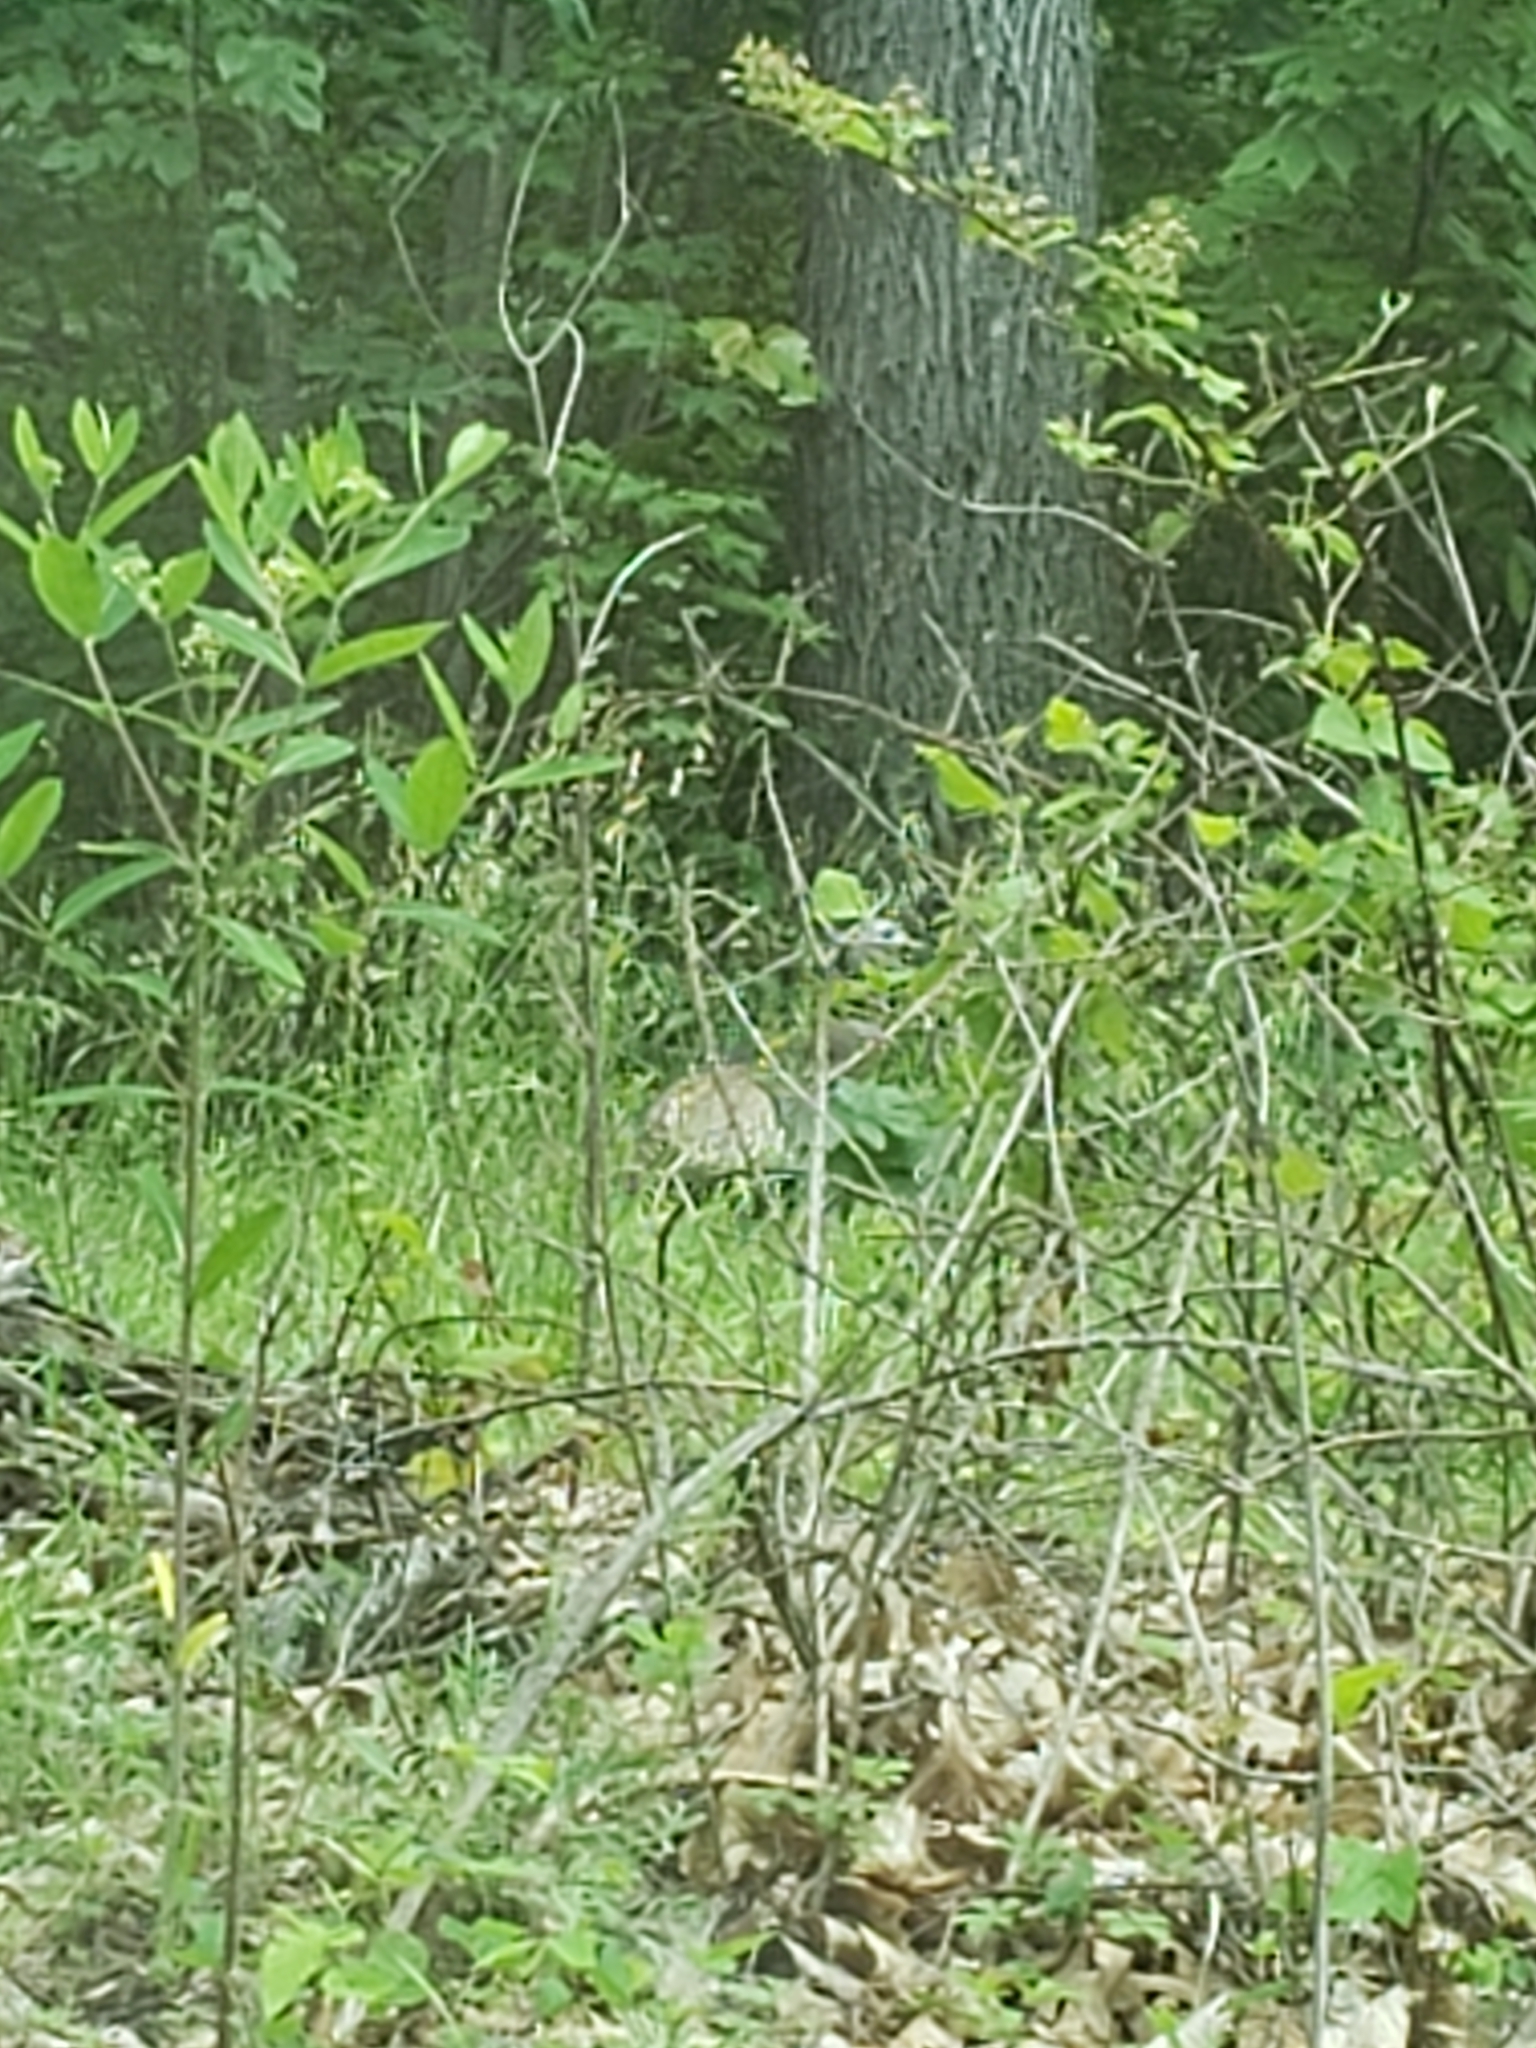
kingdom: Animalia
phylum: Chordata
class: Aves
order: Galliformes
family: Phasianidae
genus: Meleagris
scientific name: Meleagris gallopavo
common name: Wild turkey
